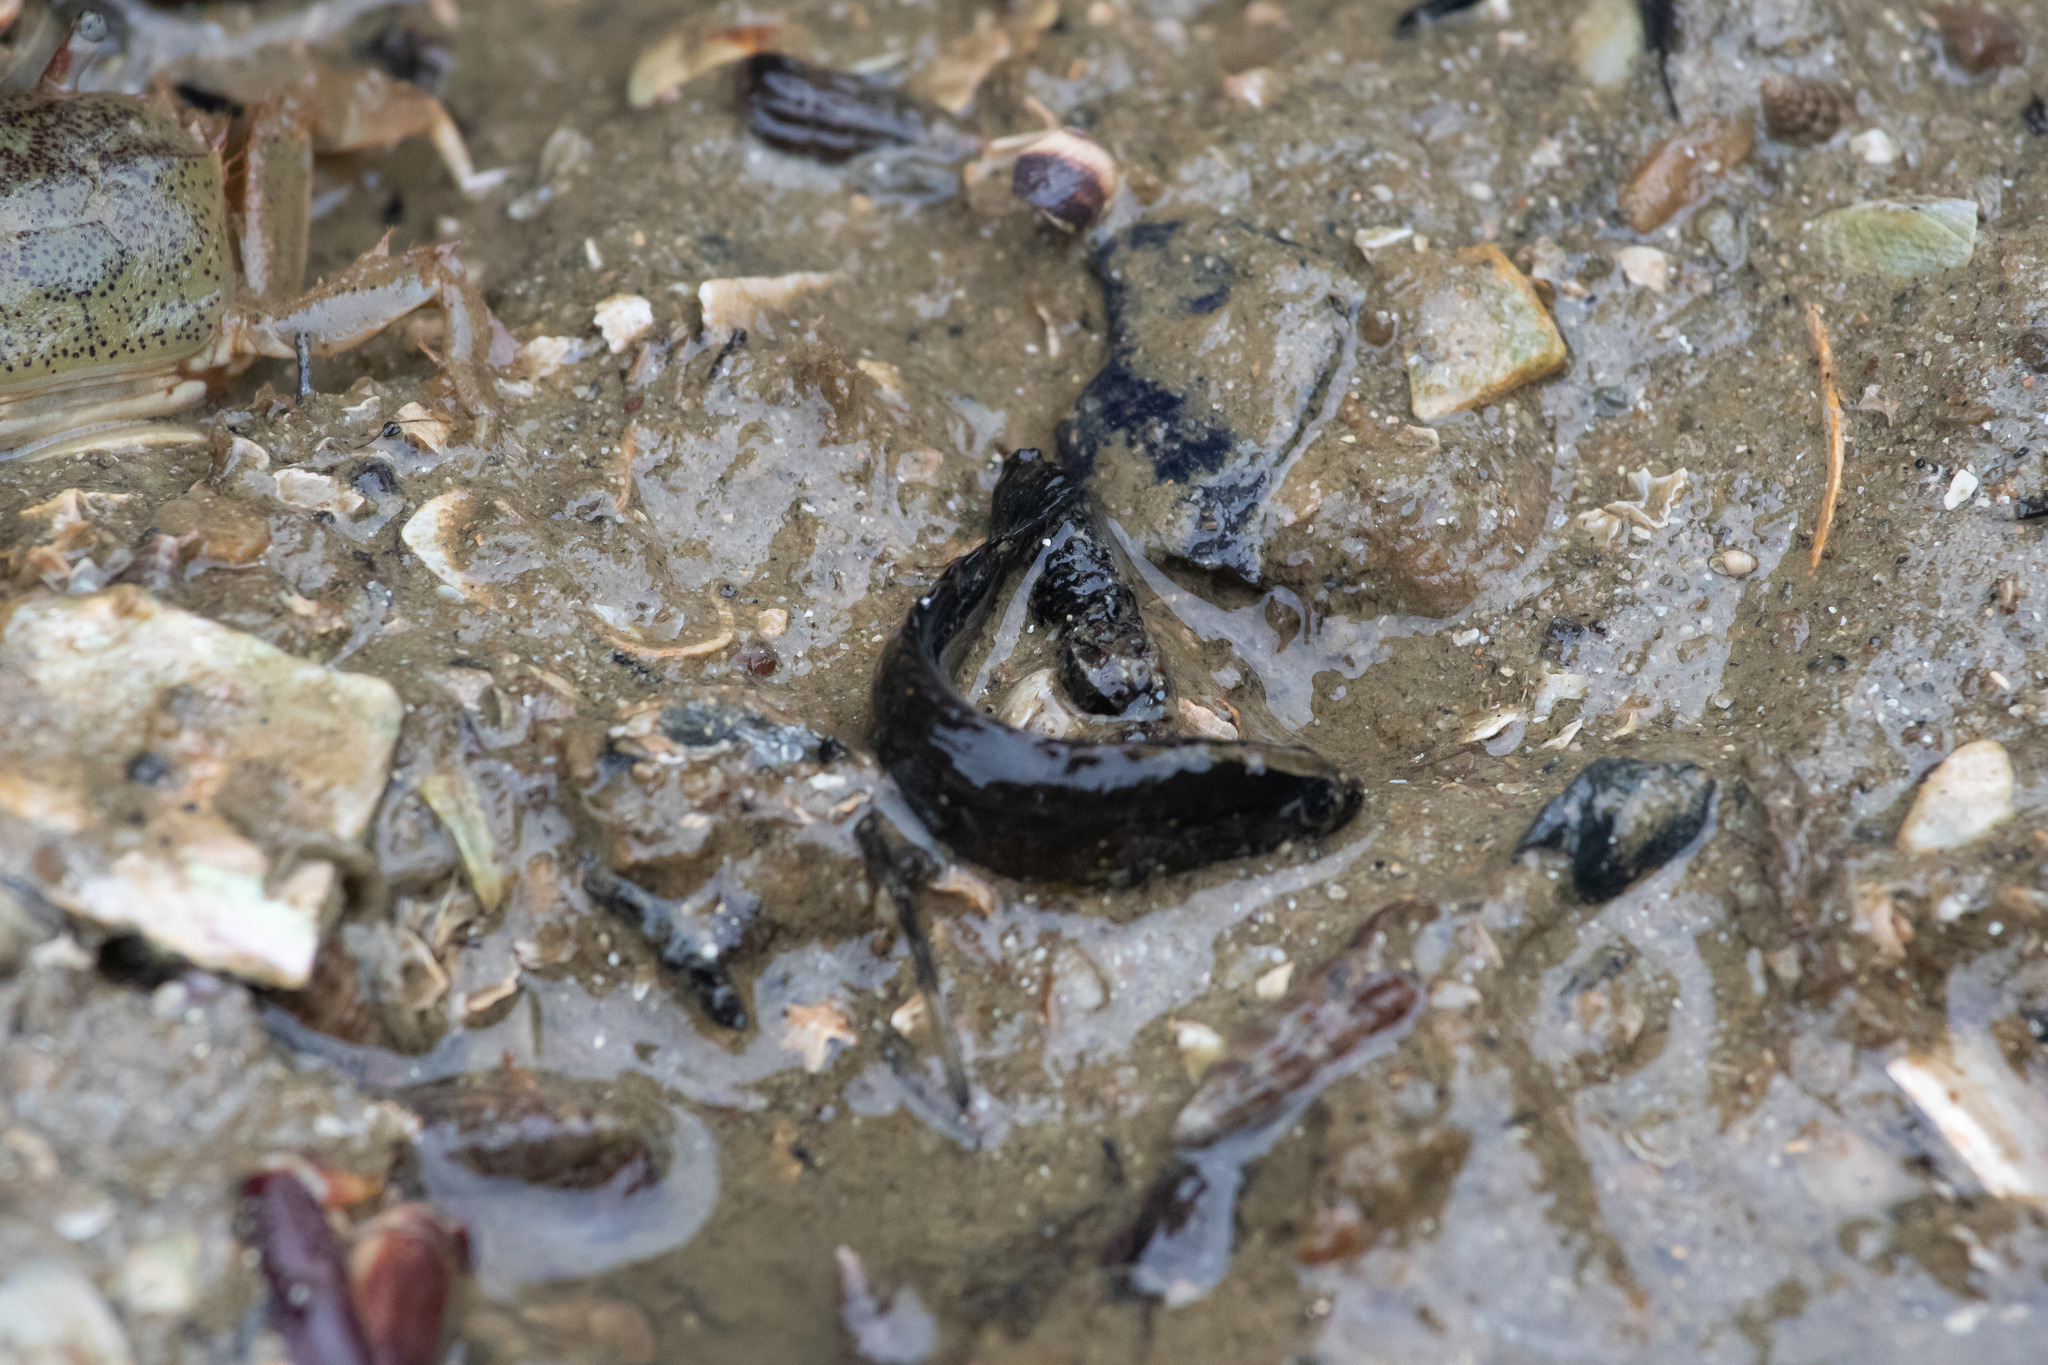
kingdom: Animalia
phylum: Chordata
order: Perciformes
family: Plesiopidae
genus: Acanthoclinus
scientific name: Acanthoclinus fuscus
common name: Olive rockfish
